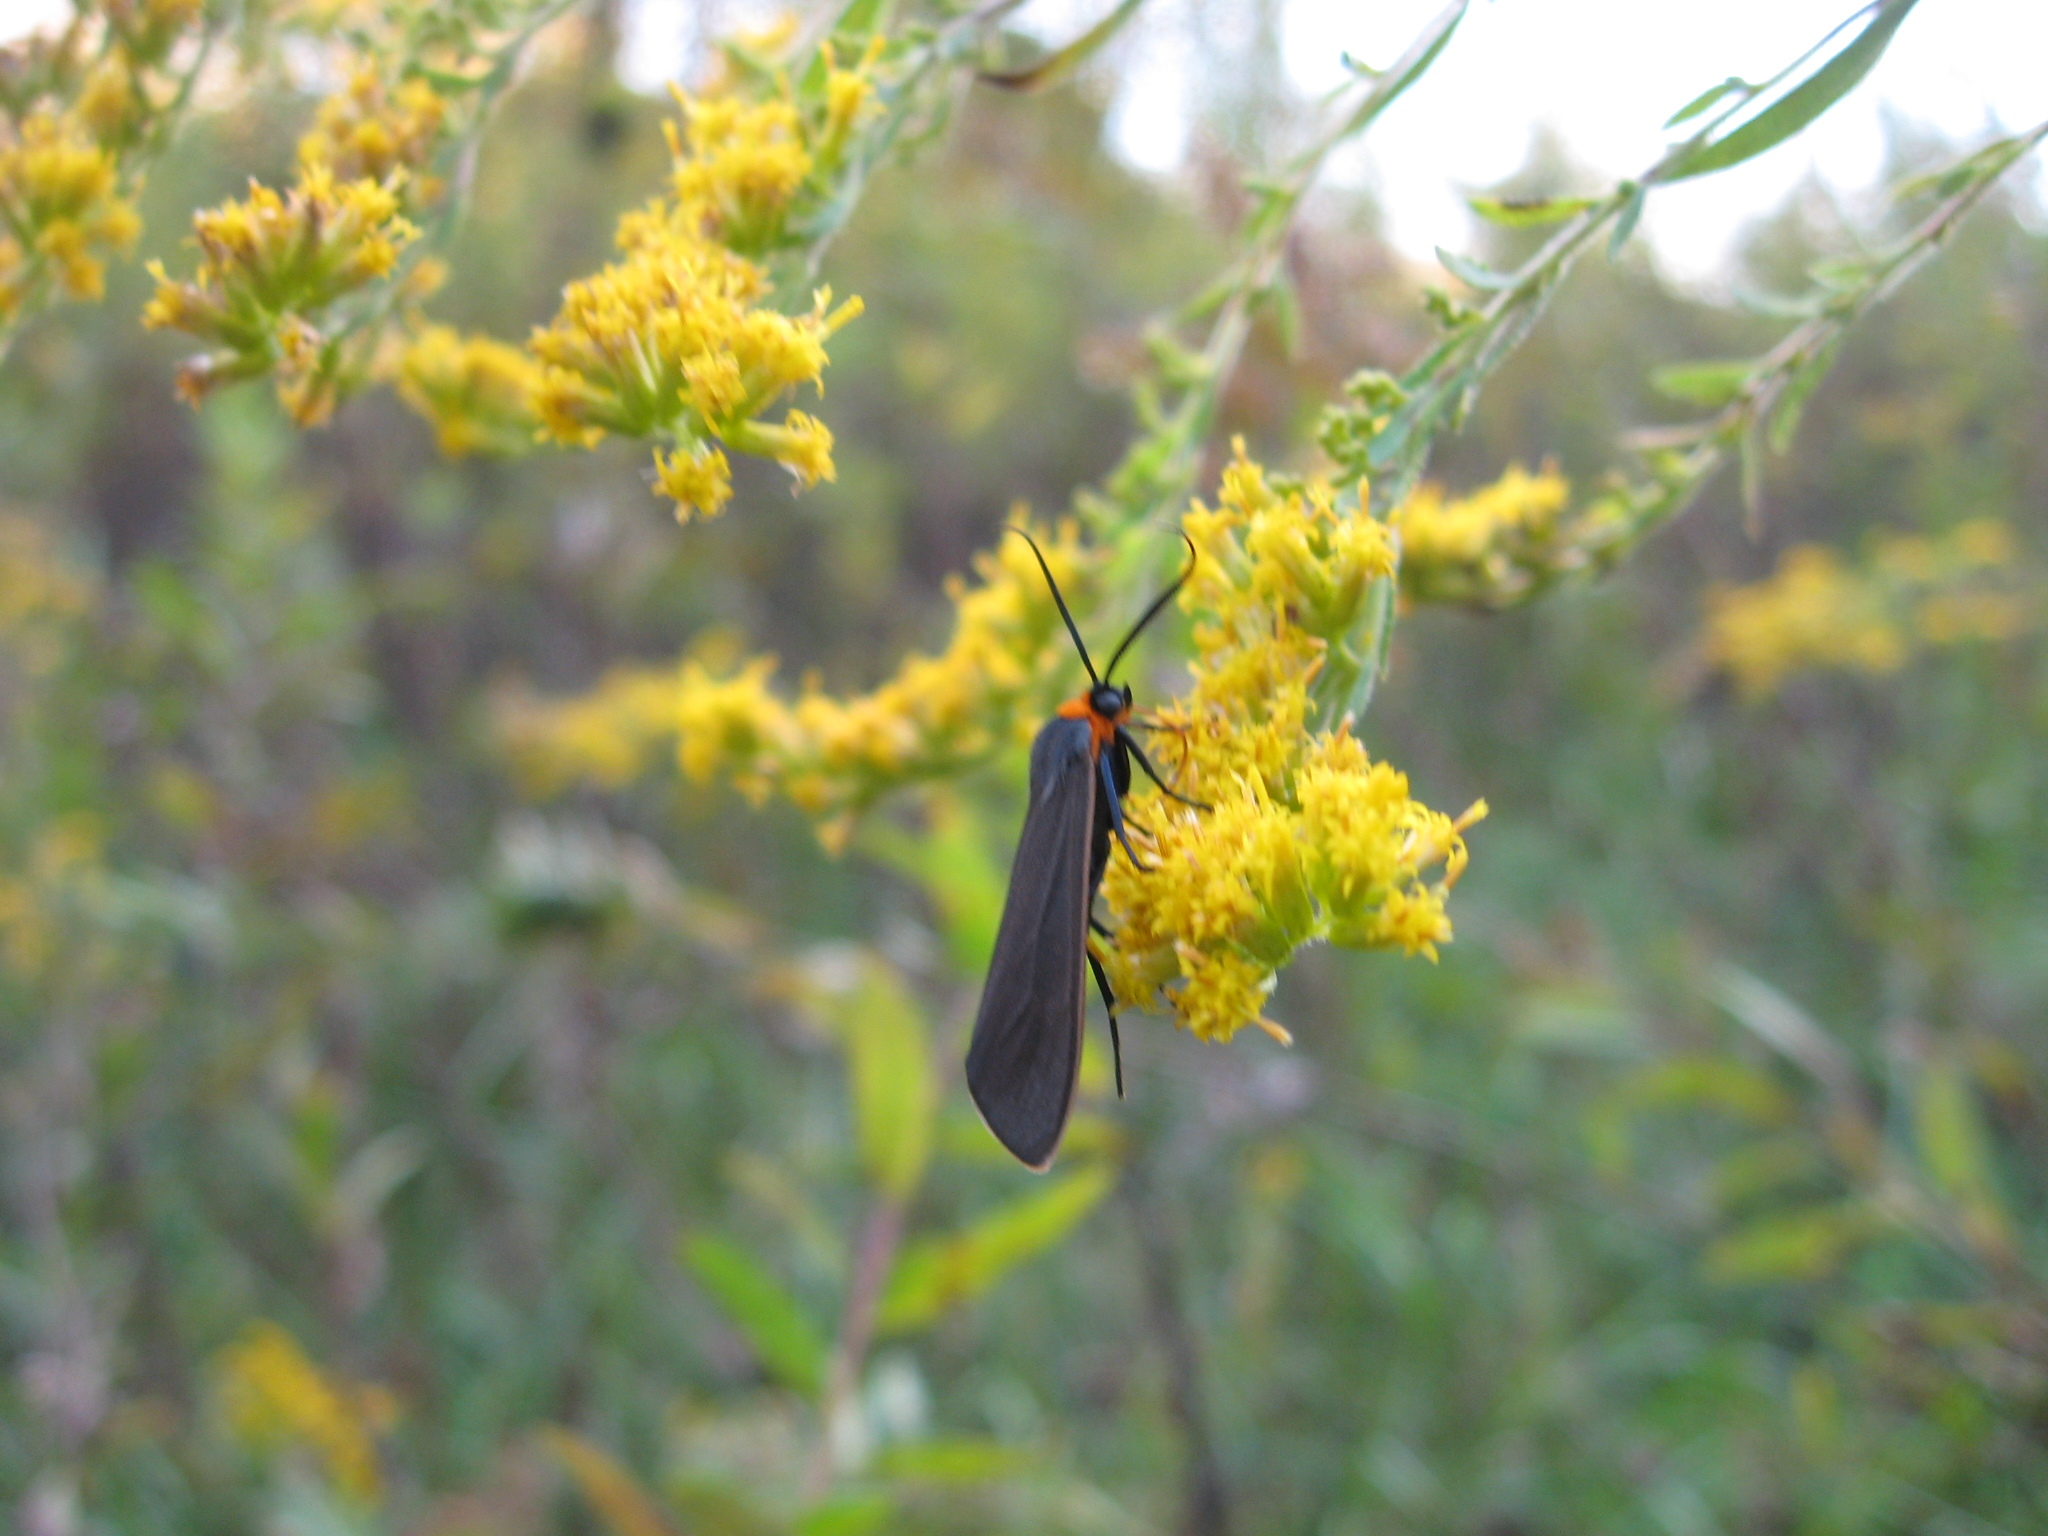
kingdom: Animalia
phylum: Arthropoda
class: Insecta
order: Lepidoptera
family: Erebidae
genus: Cisseps
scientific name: Cisseps fulvicollis
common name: Yellow-collared scape moth
